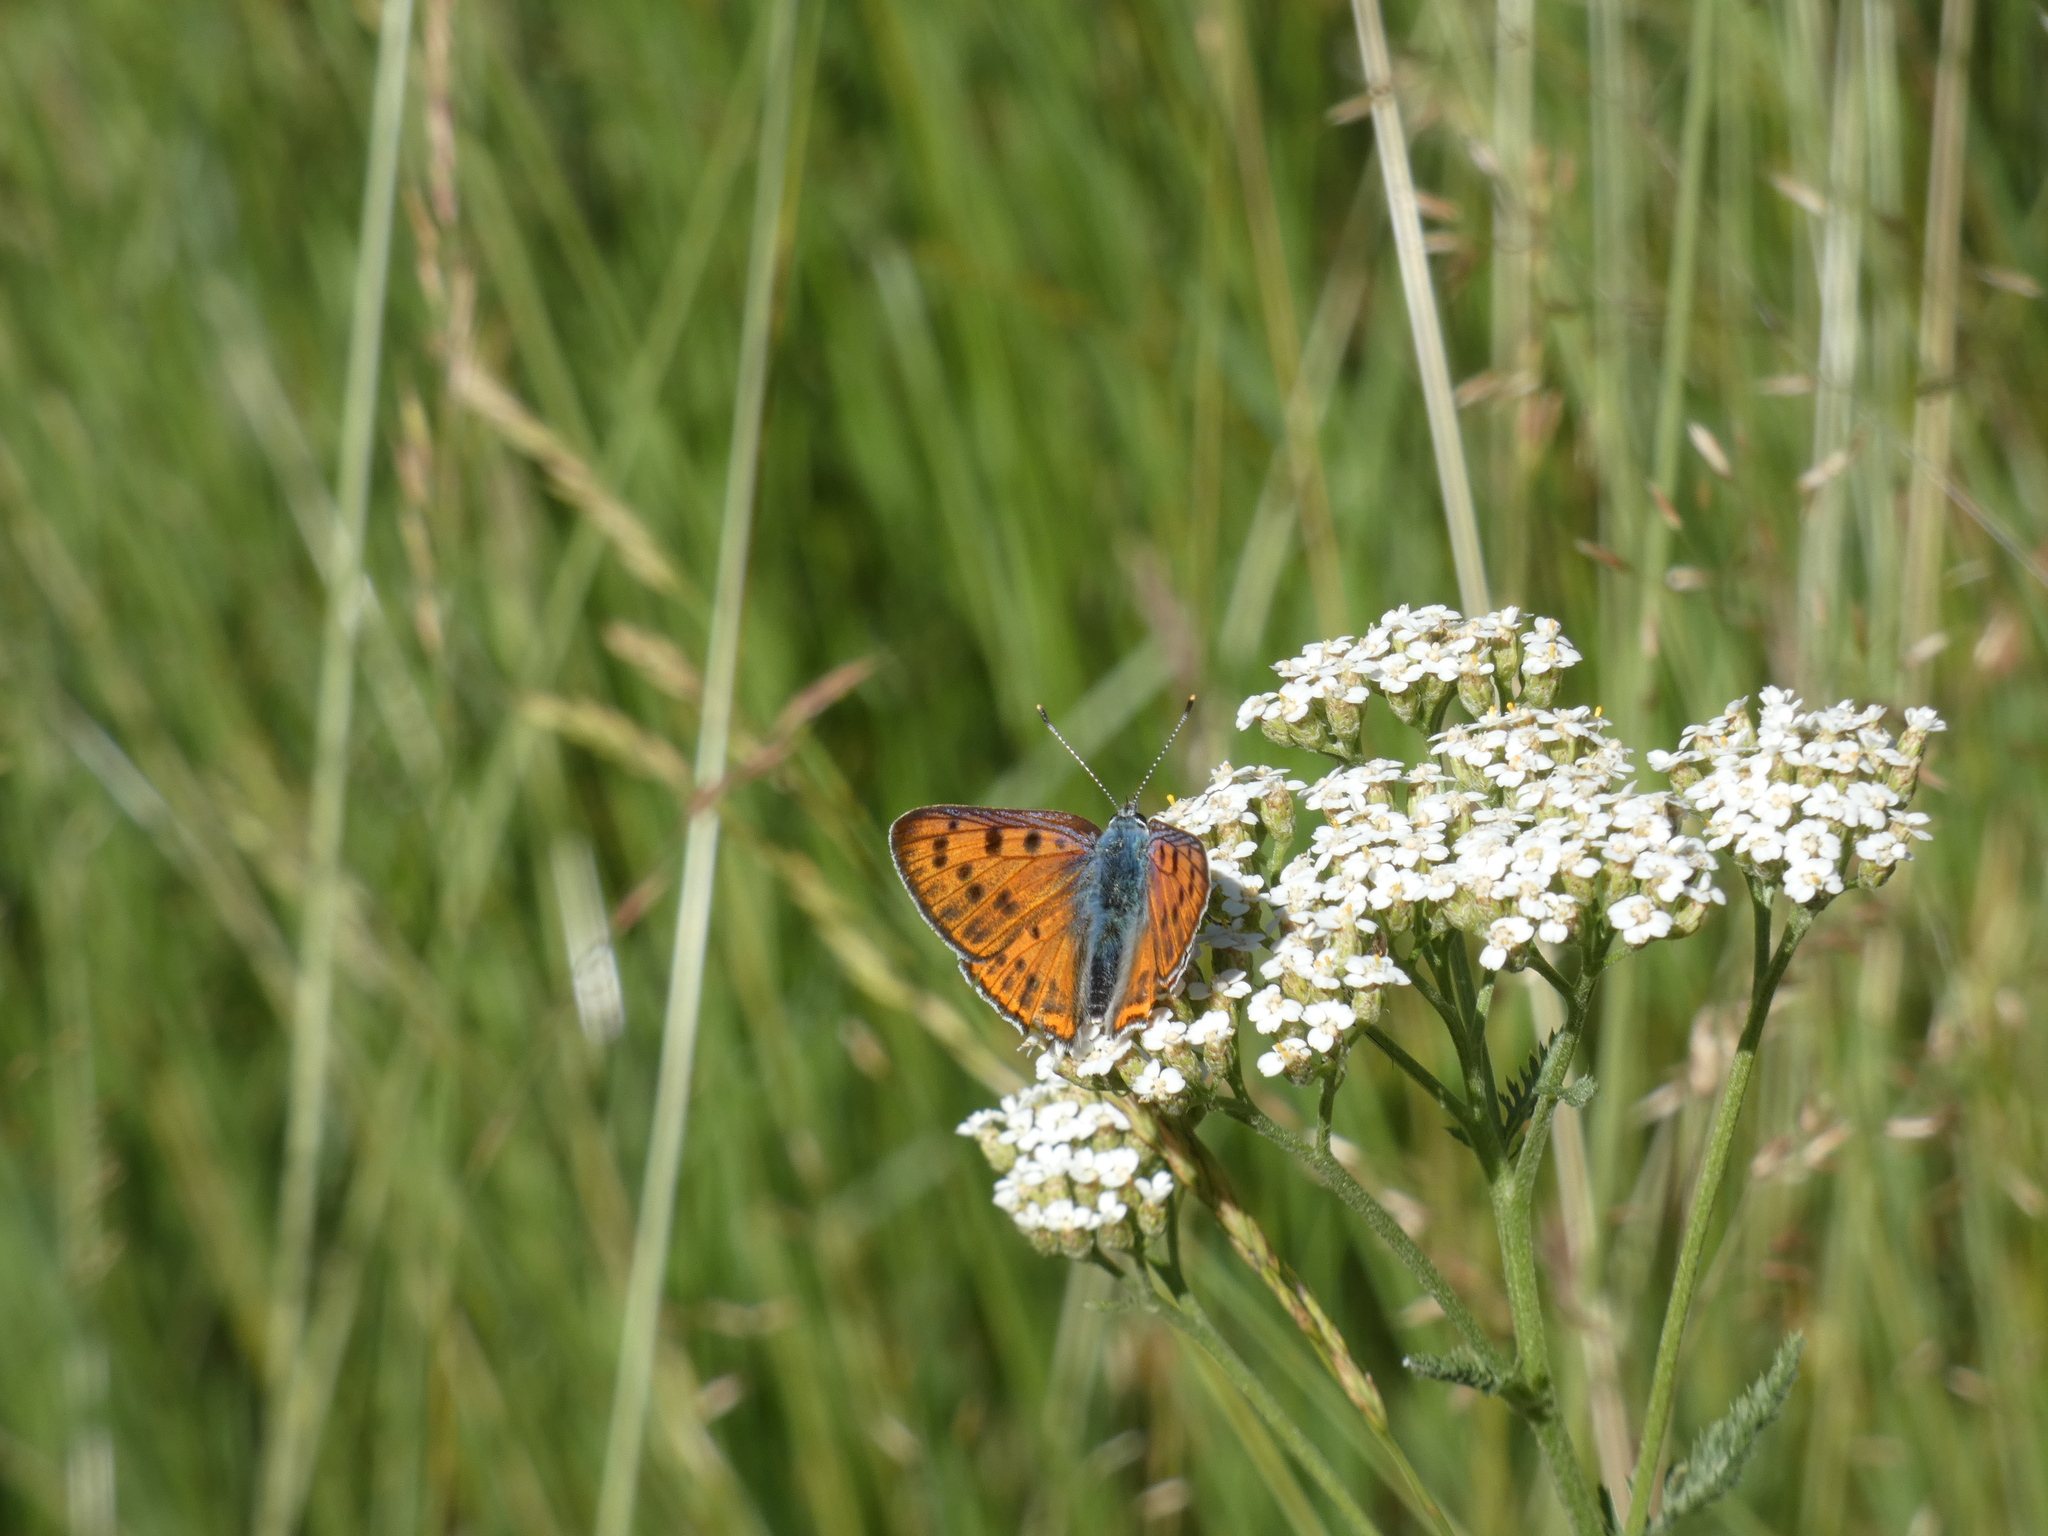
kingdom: Animalia
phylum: Arthropoda
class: Insecta
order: Lepidoptera
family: Lycaenidae
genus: Lycaena
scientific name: Lycaena alciphron
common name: Purple-shot copper
